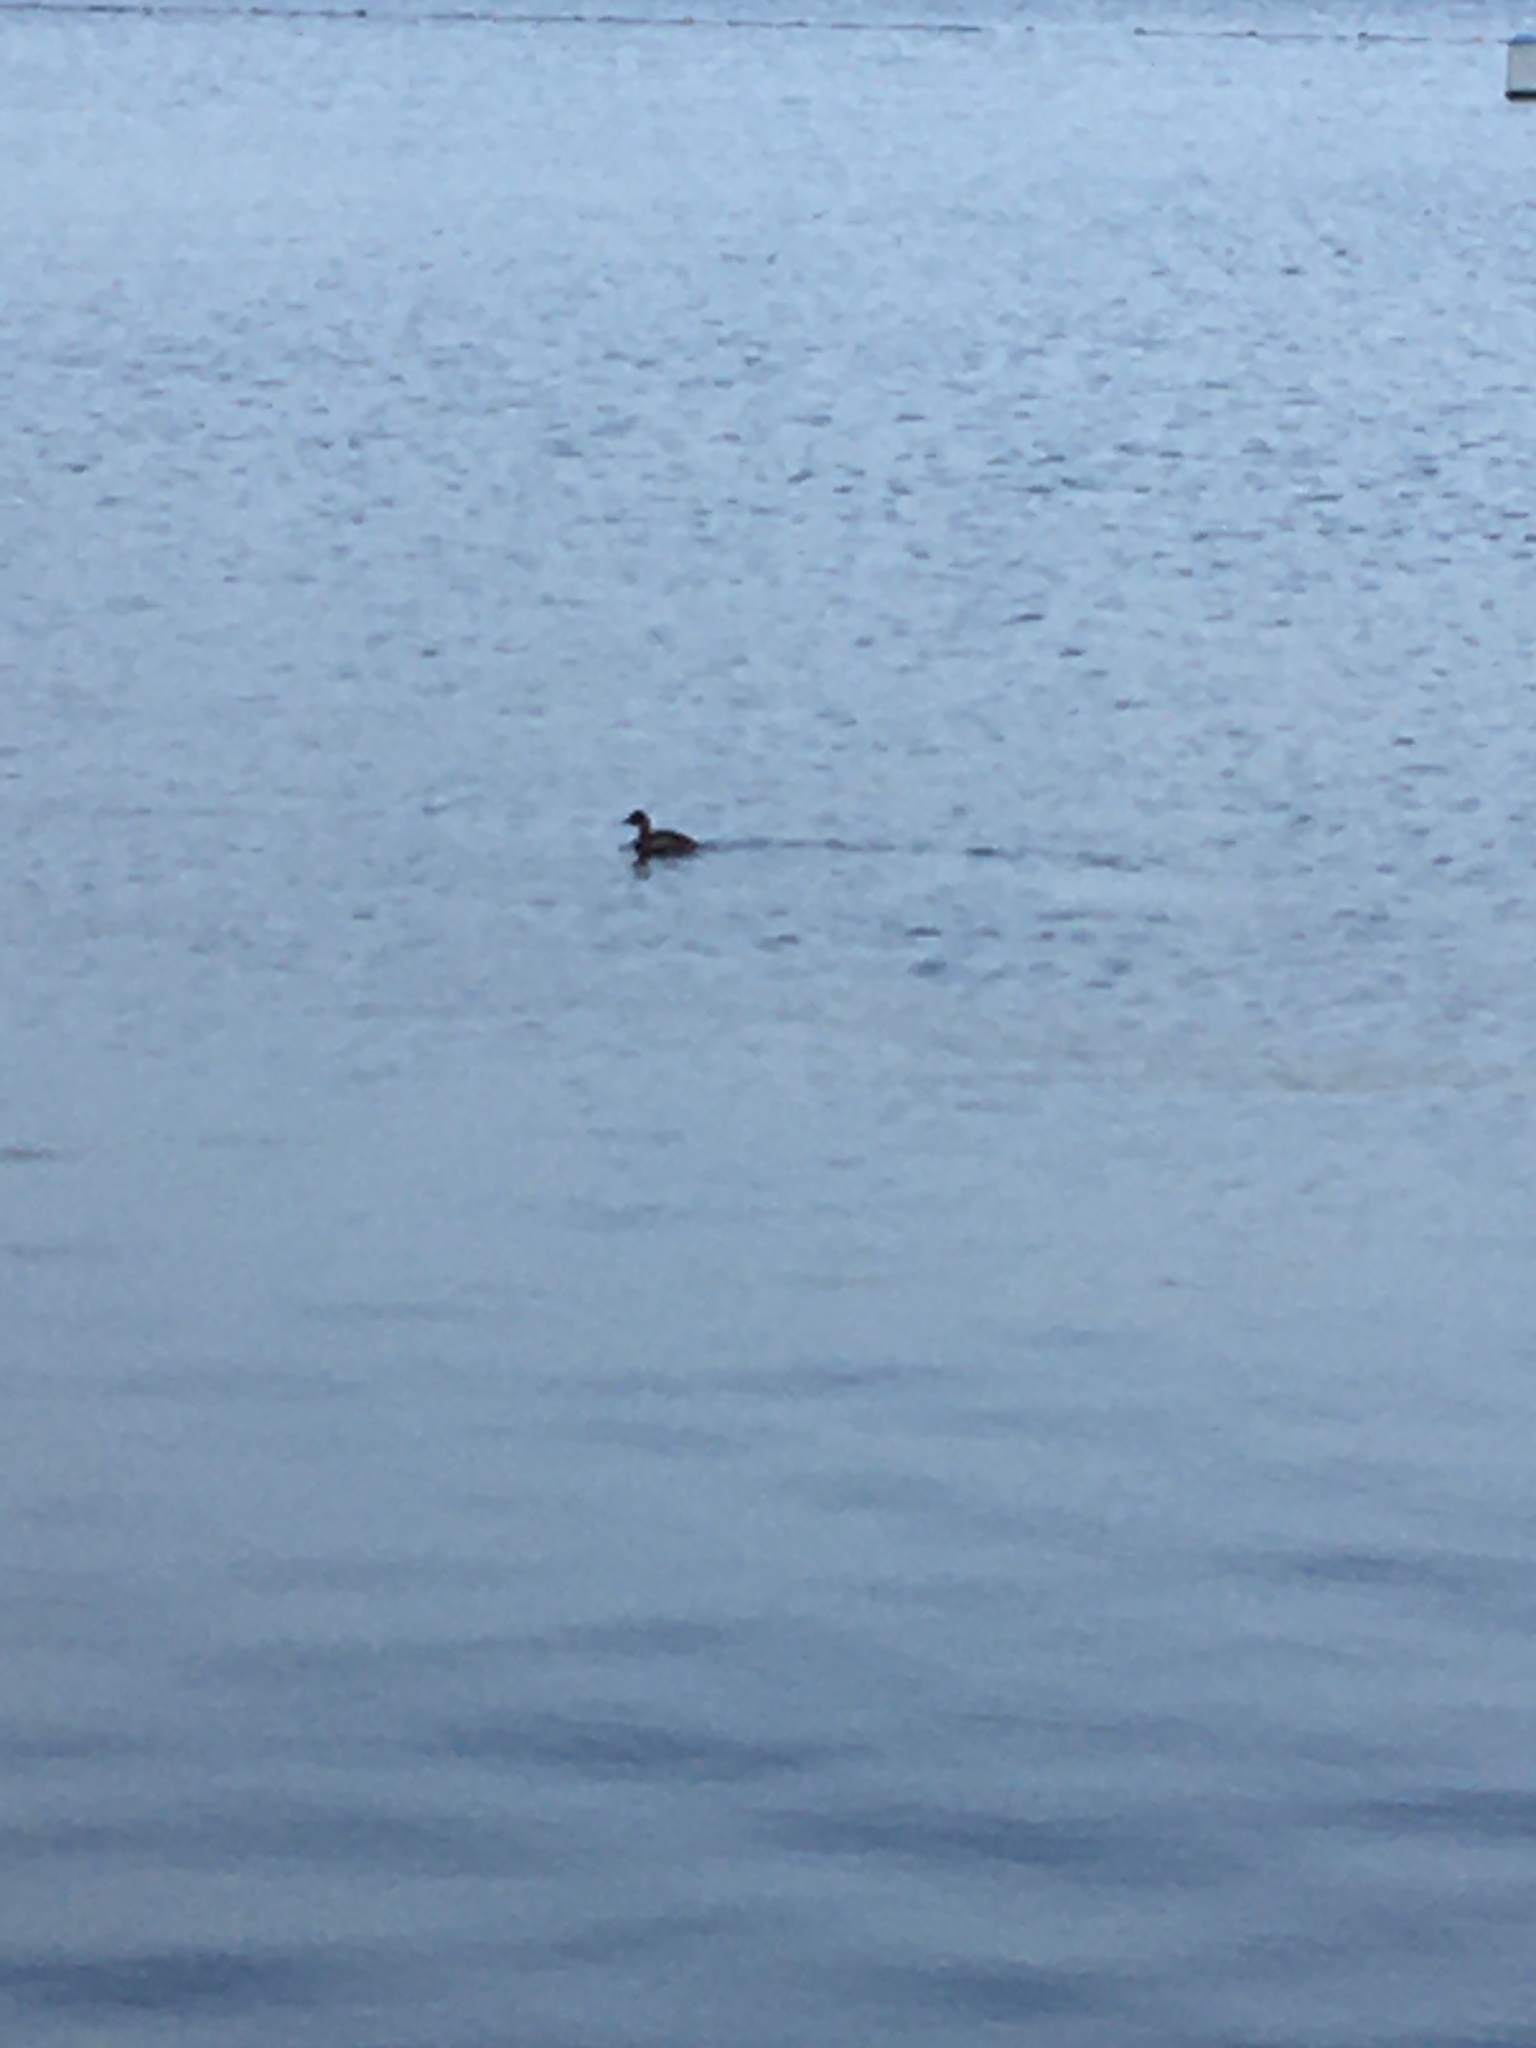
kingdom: Animalia
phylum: Chordata
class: Aves
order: Podicipediformes
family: Podicipedidae
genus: Tachybaptus
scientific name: Tachybaptus ruficollis
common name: Little grebe
